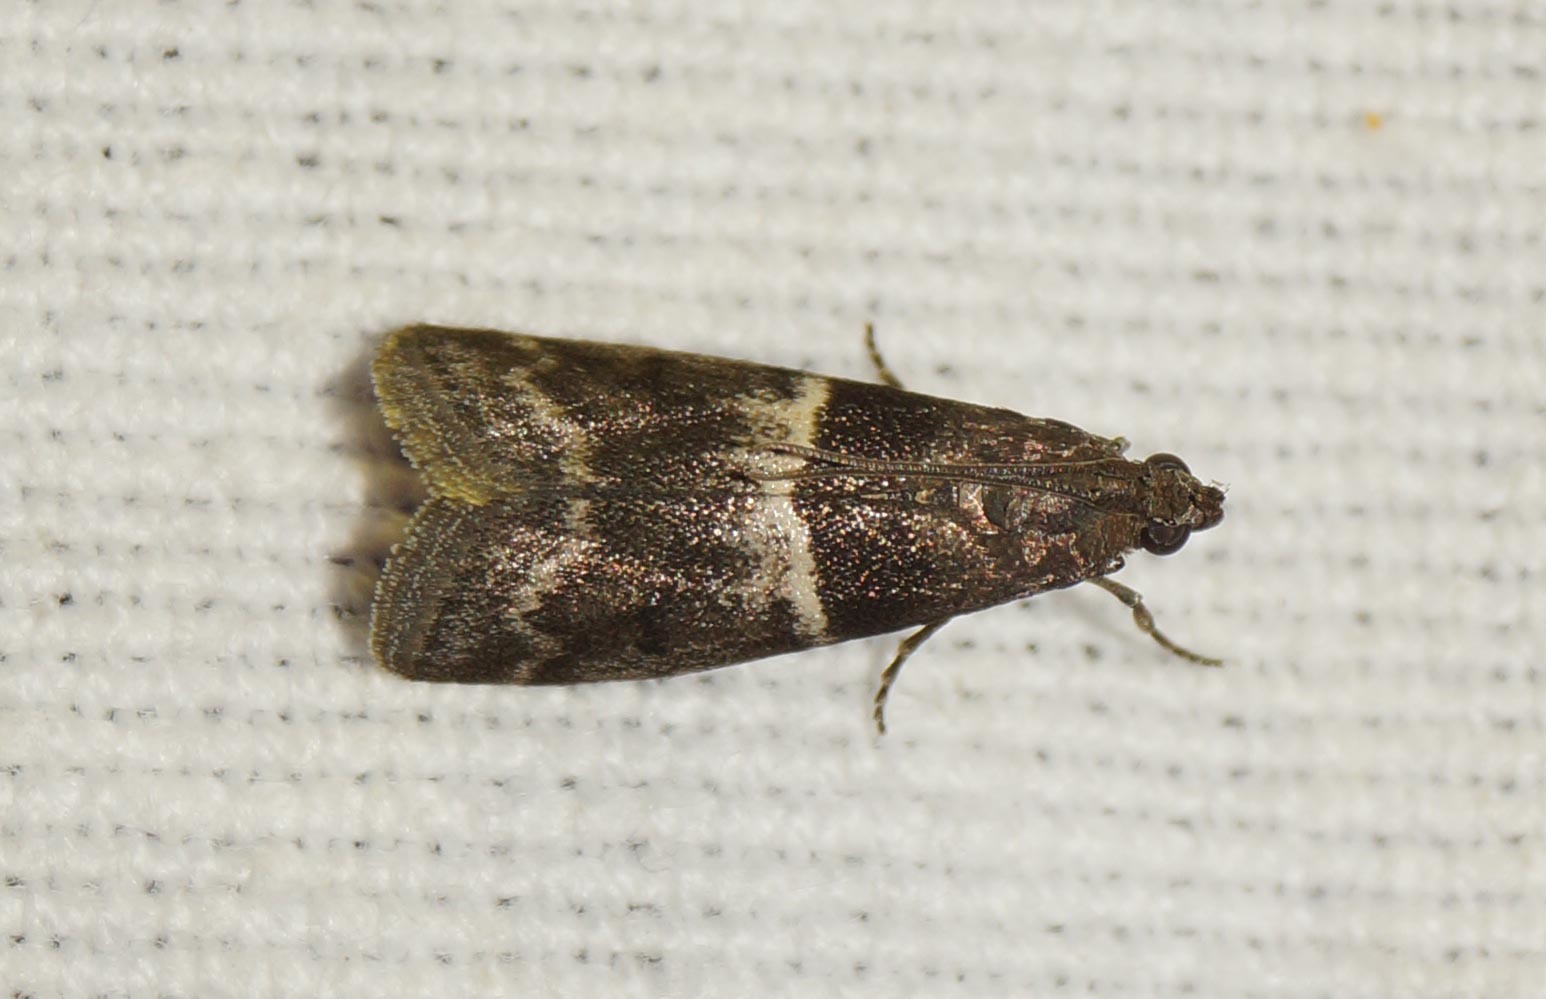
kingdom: Animalia
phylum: Arthropoda
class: Insecta
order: Lepidoptera
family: Pyralidae
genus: Elegia
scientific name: Elegia similella
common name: White-barred knot-horn
